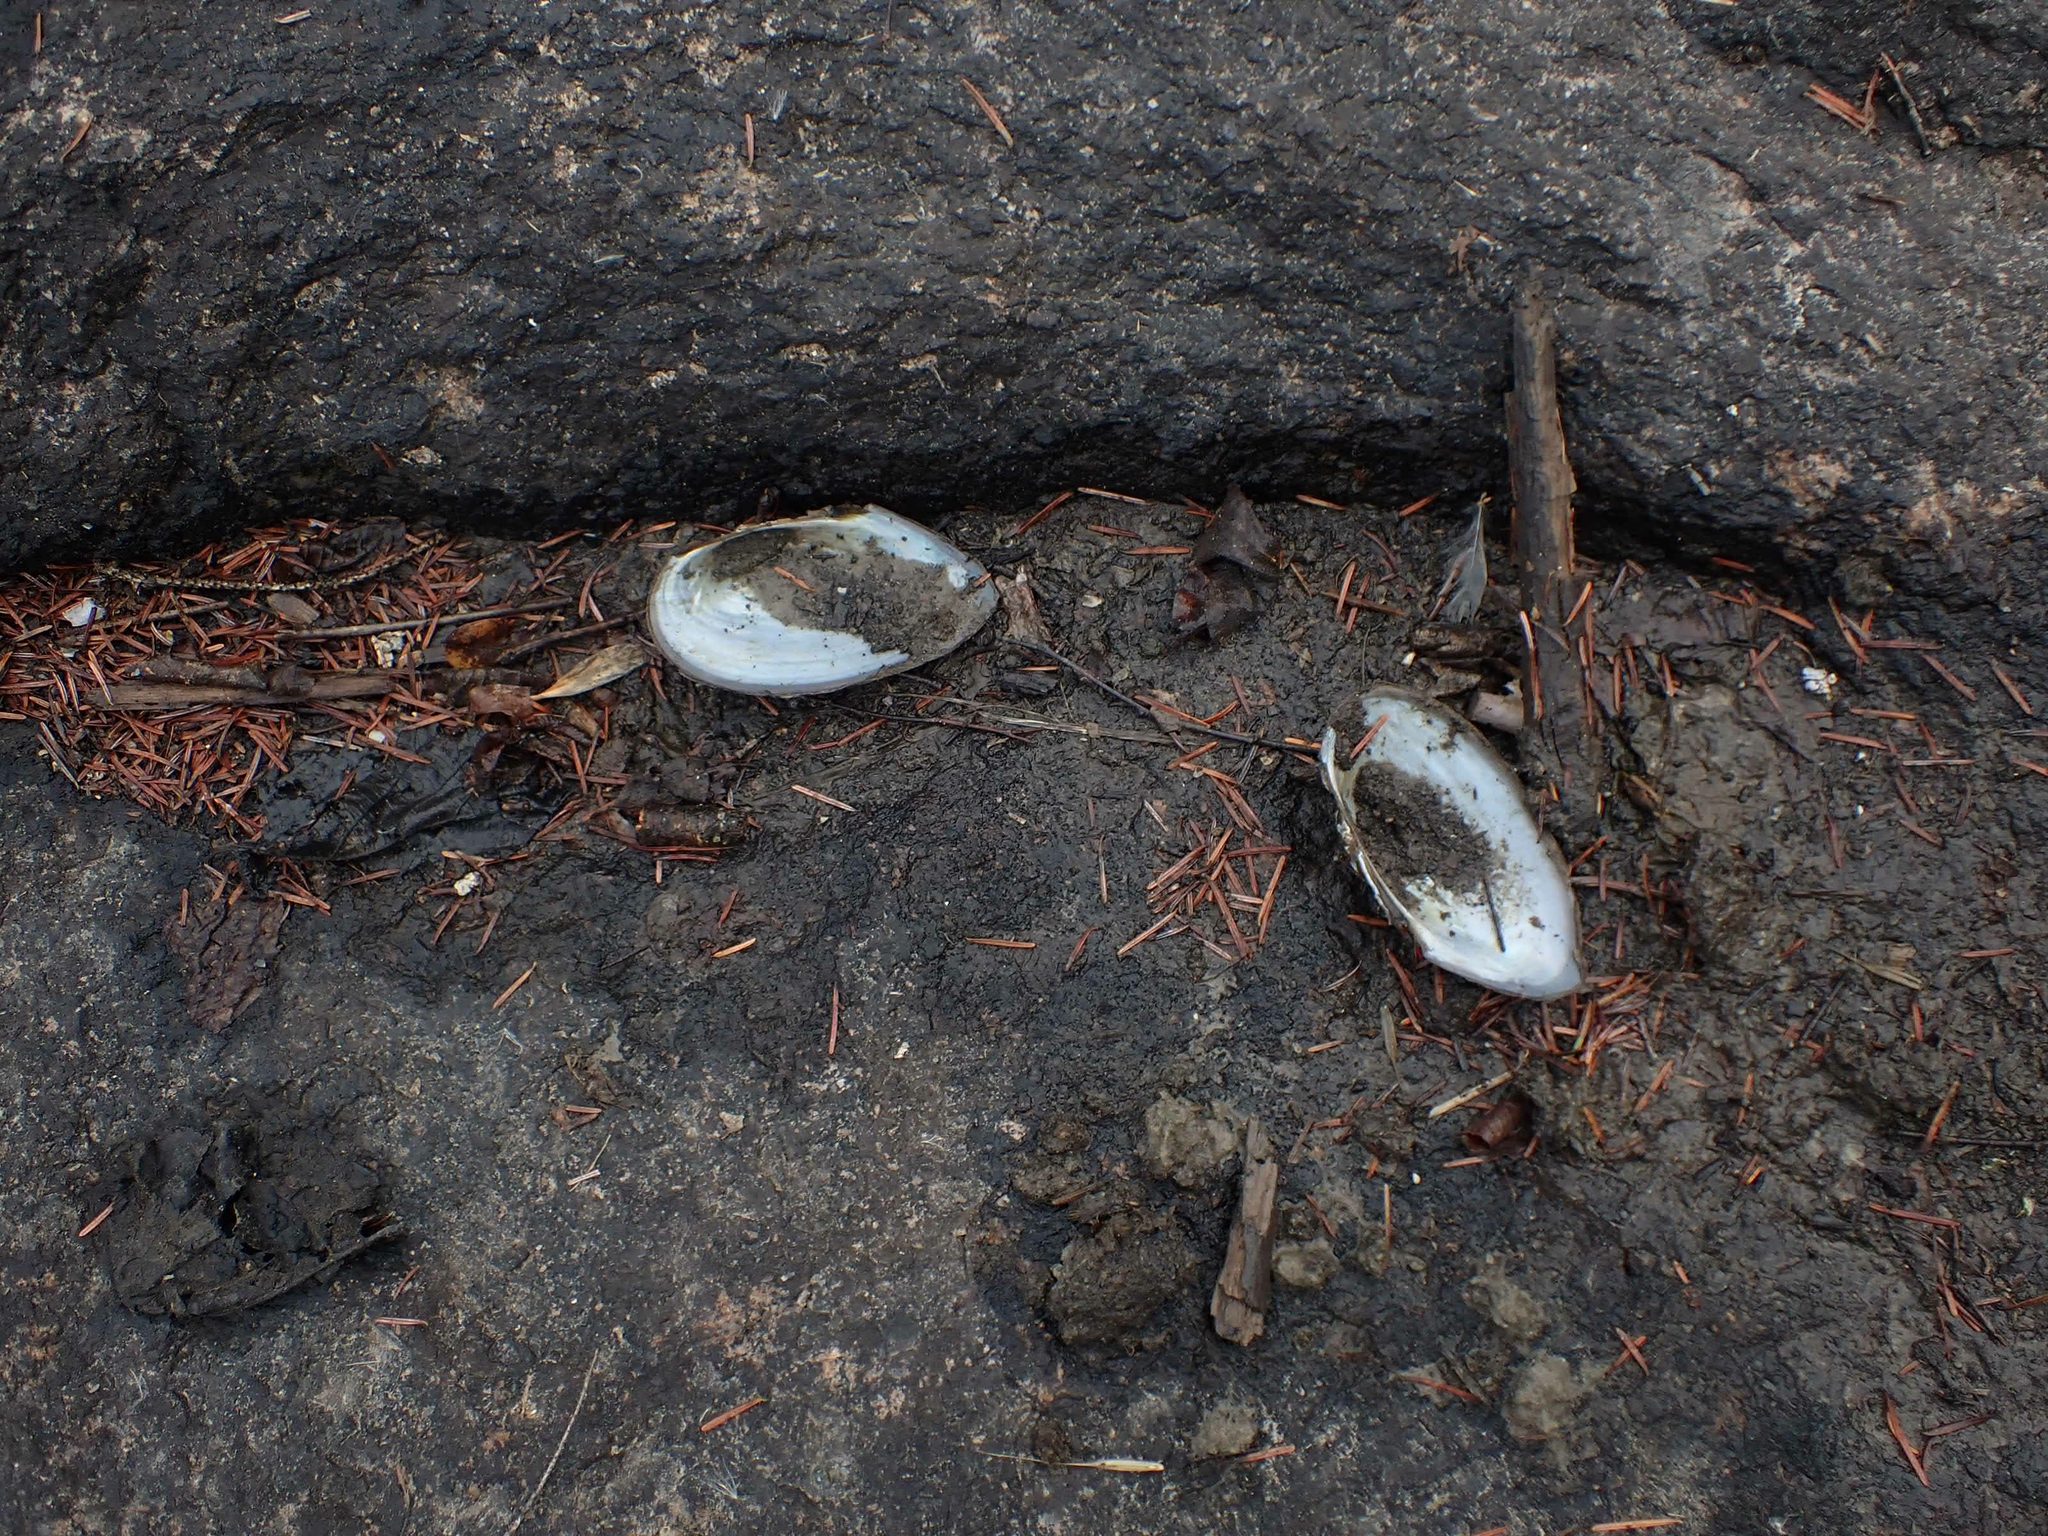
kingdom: Animalia
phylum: Mollusca
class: Bivalvia
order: Unionida
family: Unionidae
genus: Pyganodon
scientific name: Pyganodon grandis
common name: Giant floater
